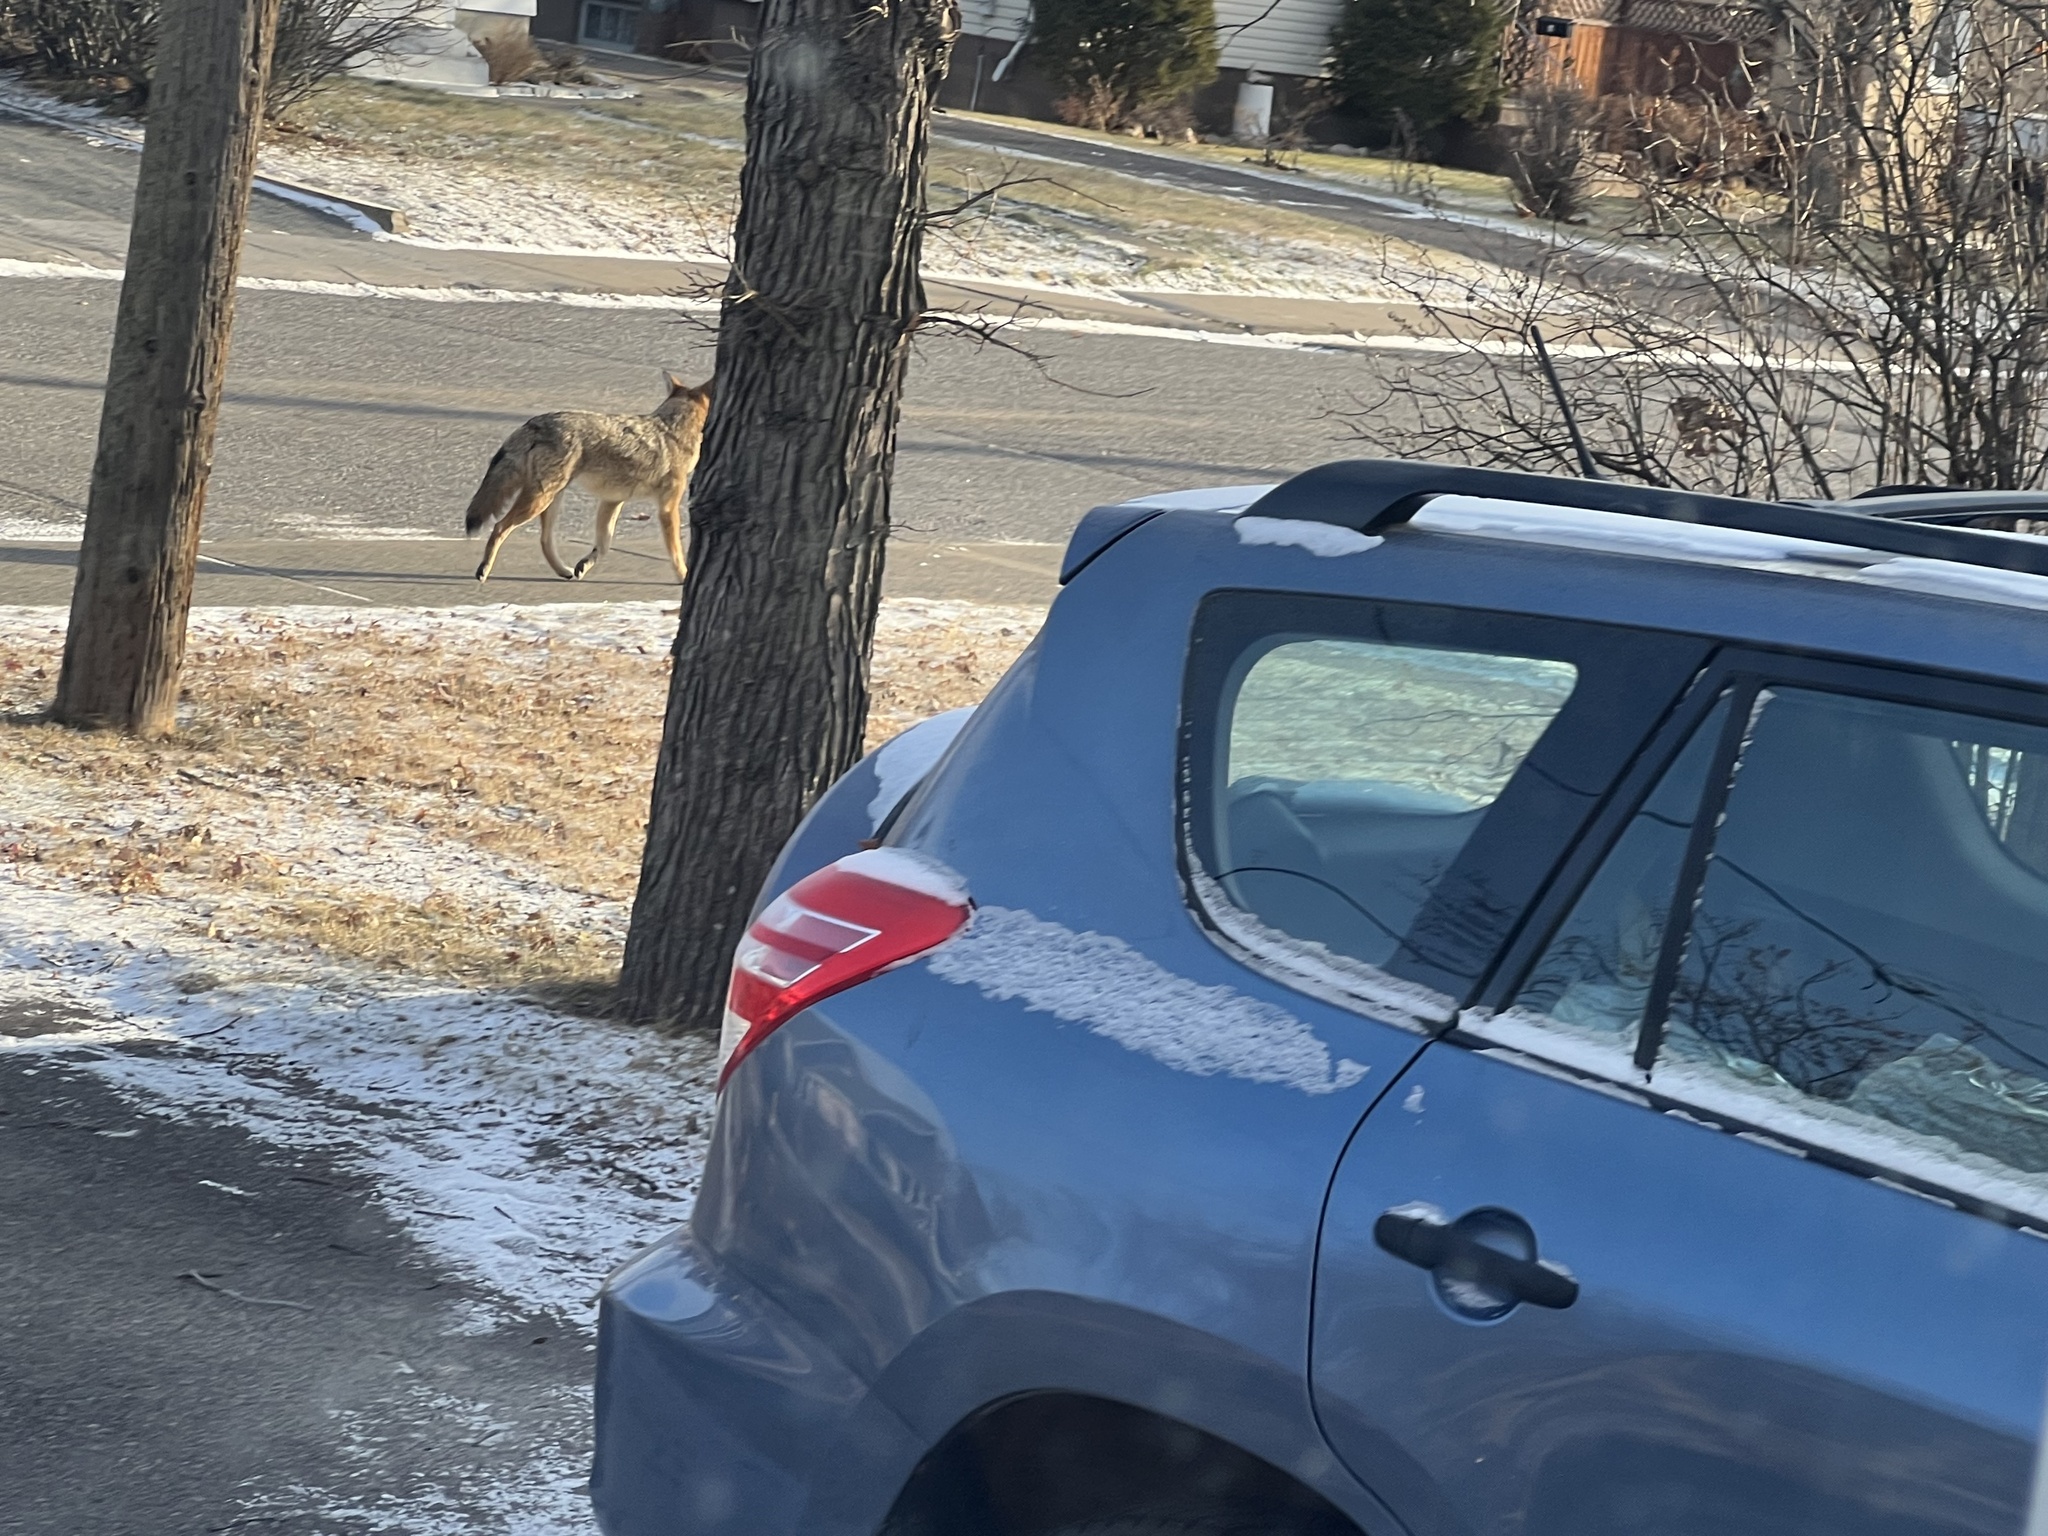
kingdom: Animalia
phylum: Chordata
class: Mammalia
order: Carnivora
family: Canidae
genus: Canis
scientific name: Canis latrans
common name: Coyote
